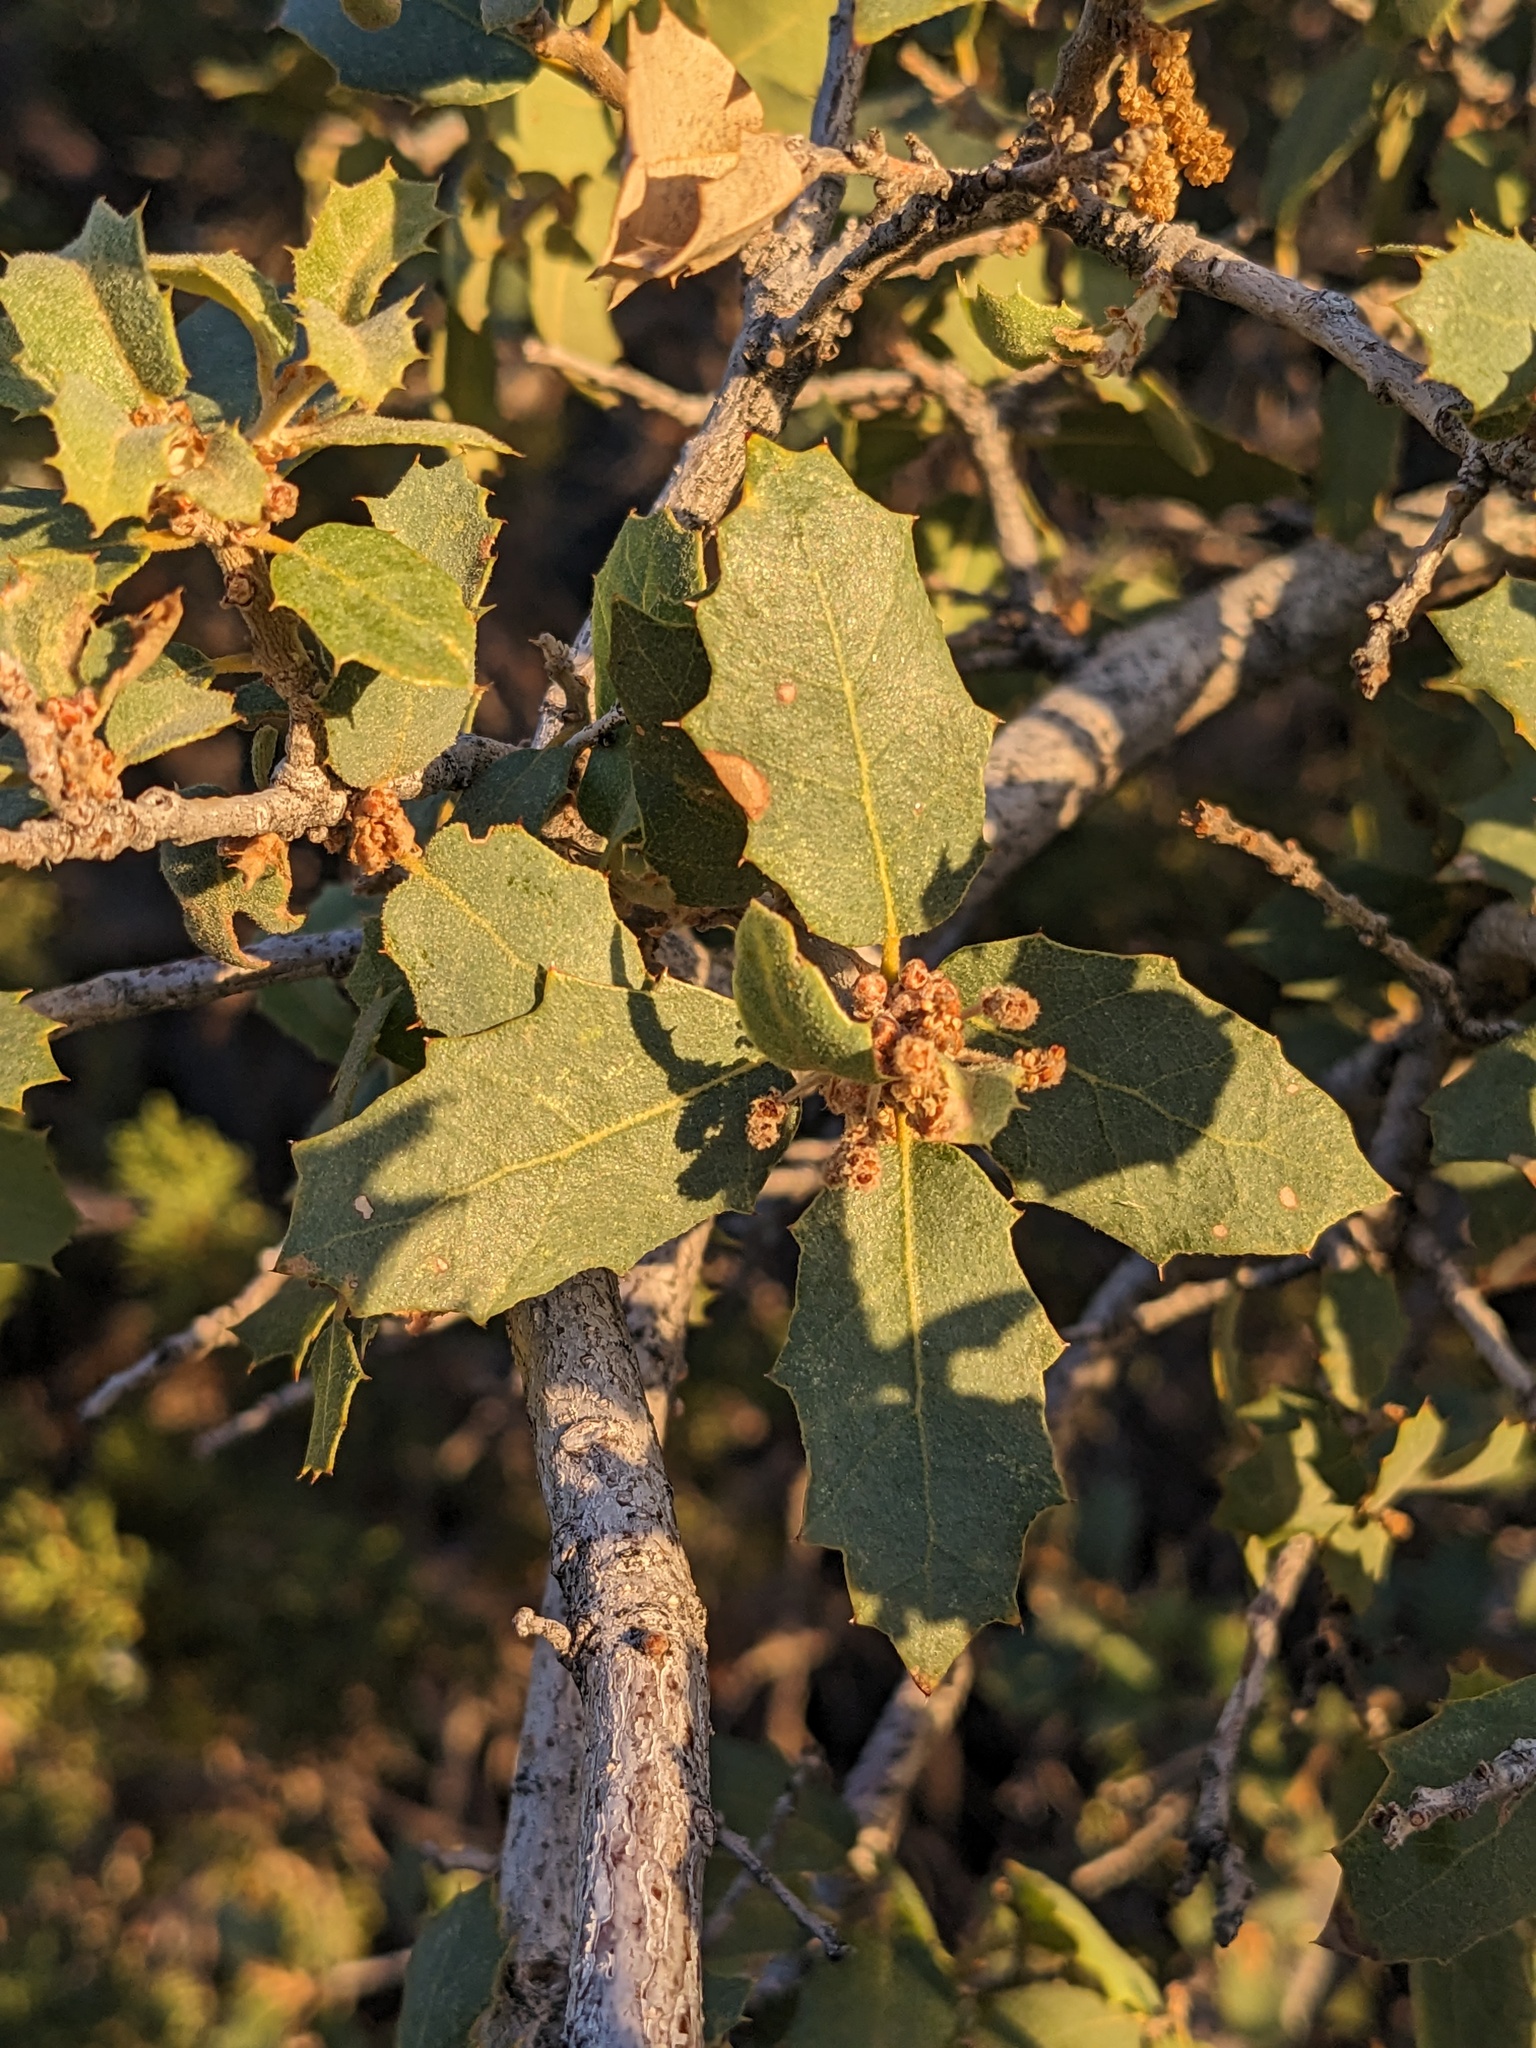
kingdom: Plantae
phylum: Tracheophyta
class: Magnoliopsida
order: Fagales
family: Fagaceae
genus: Quercus
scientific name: Quercus turbinella
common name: Sonoran scrub oak
